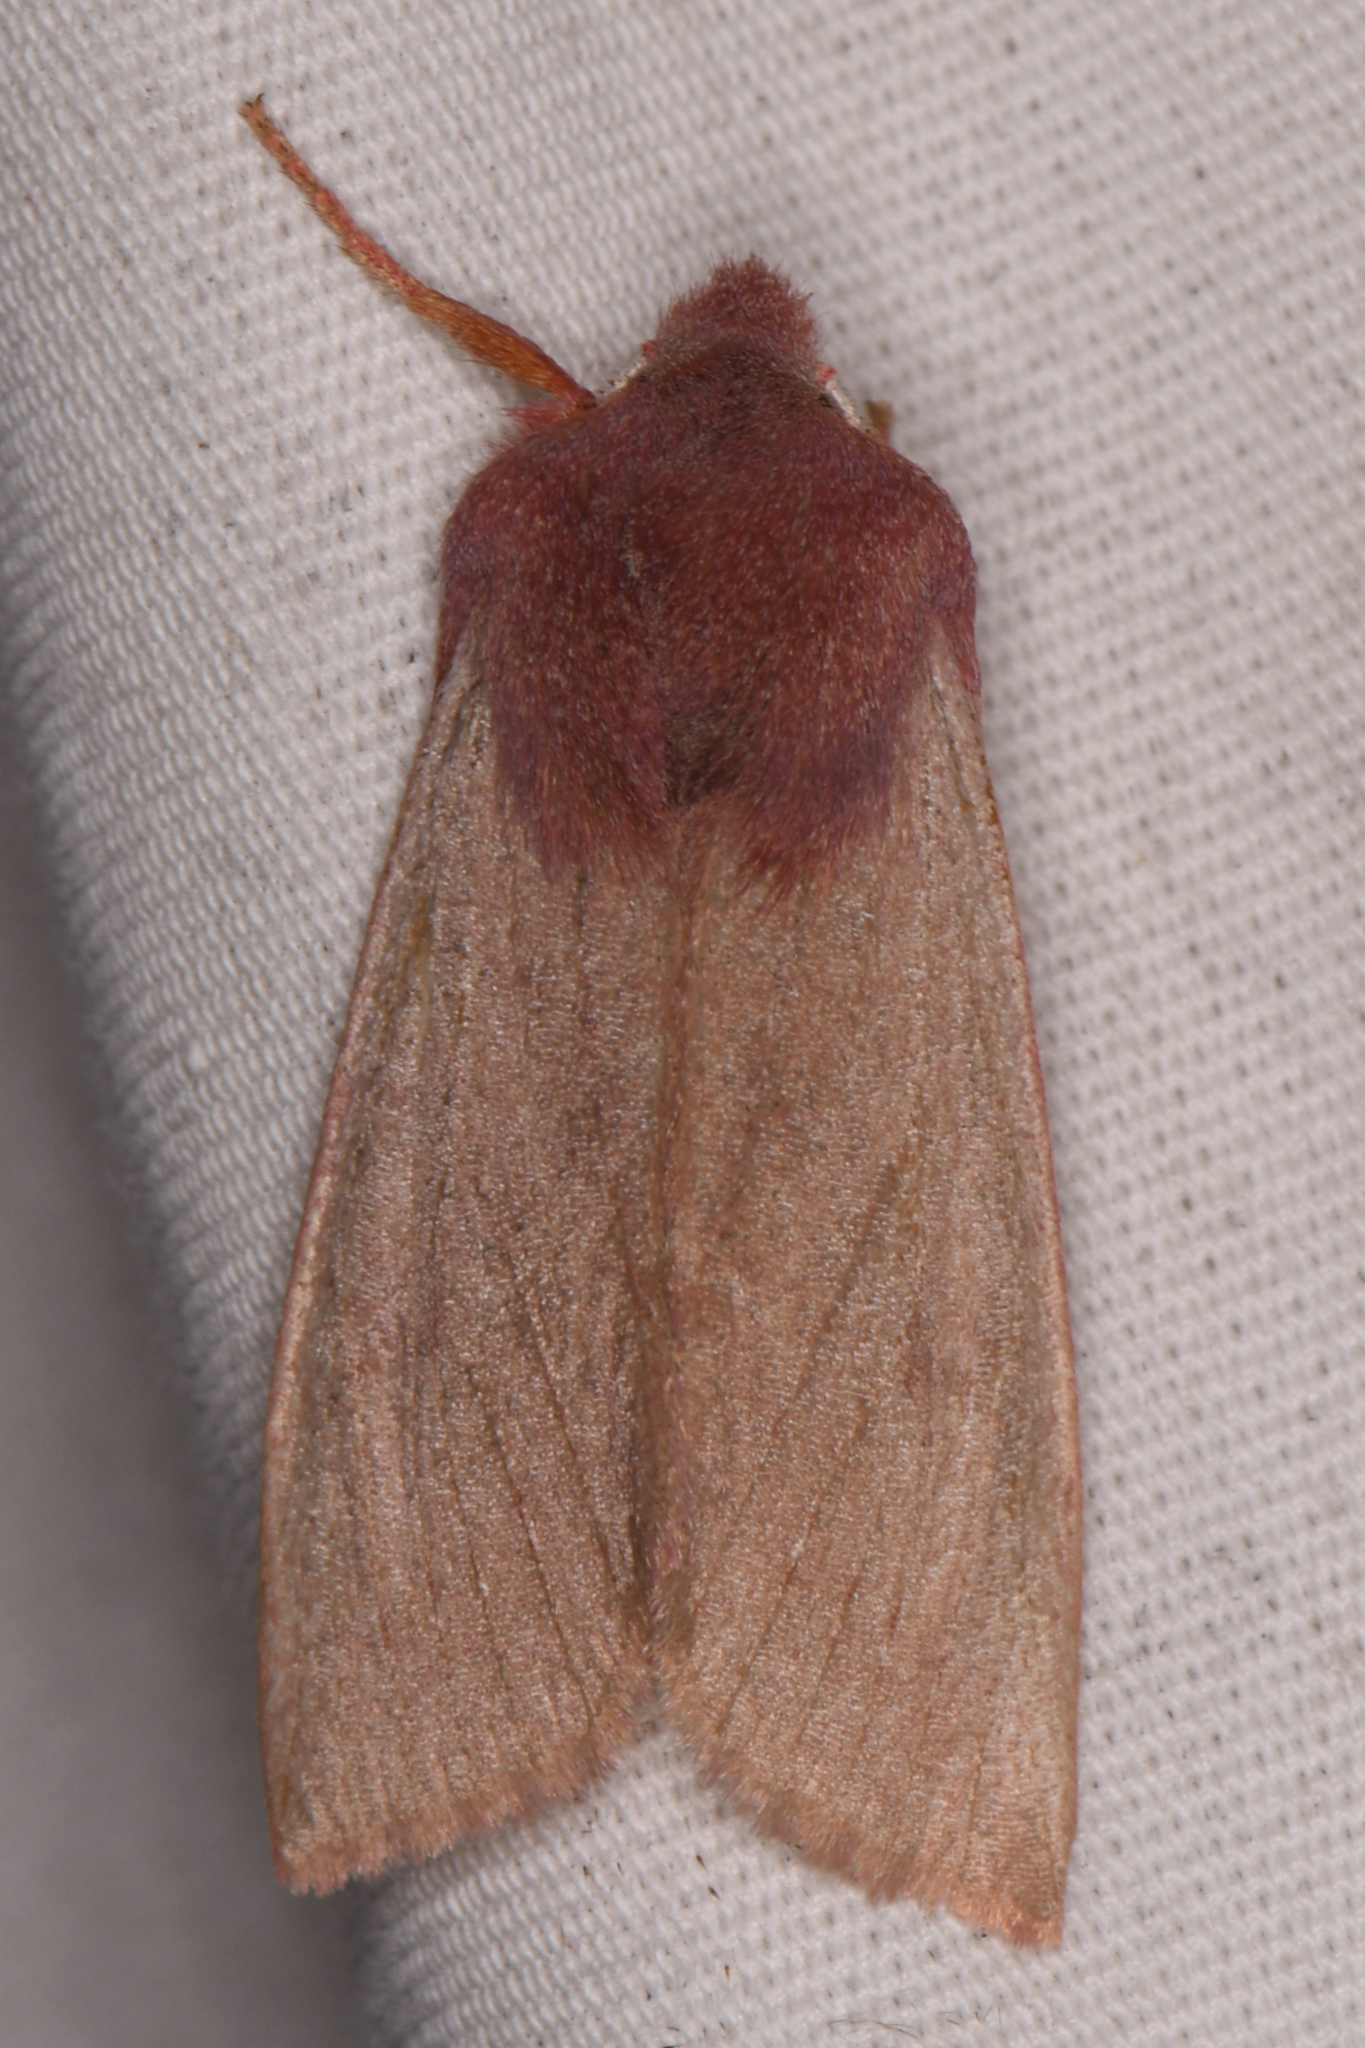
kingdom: Animalia
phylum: Arthropoda
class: Insecta
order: Lepidoptera
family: Noctuidae
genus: Orthosia
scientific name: Orthosia mys
